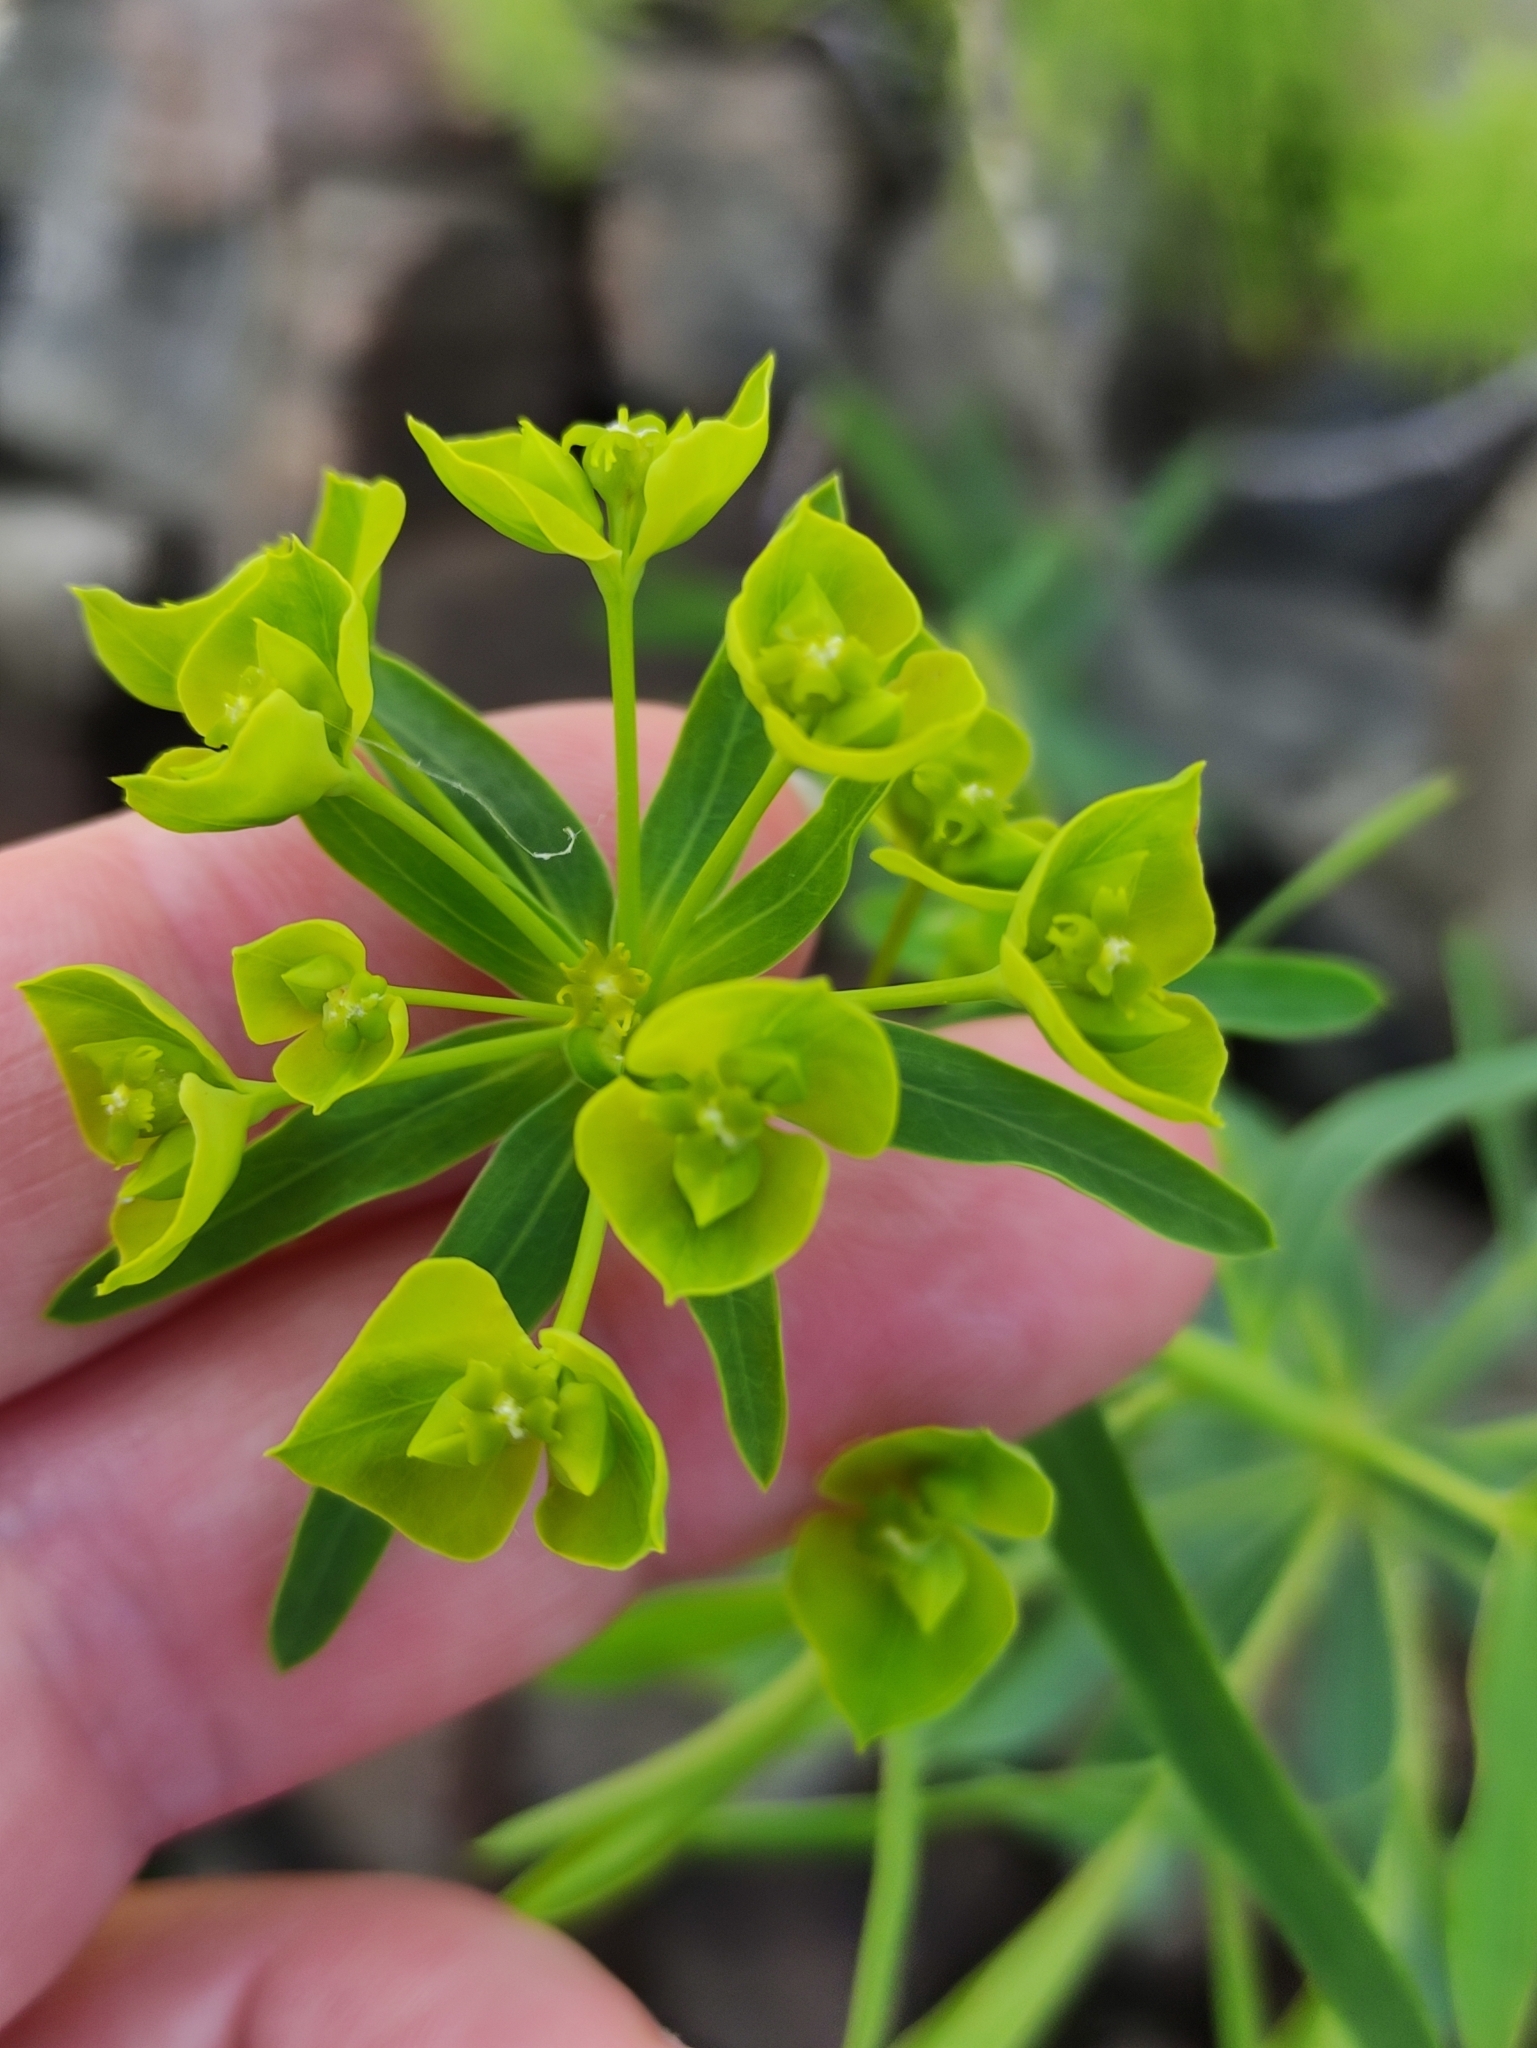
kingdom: Plantae
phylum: Tracheophyta
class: Magnoliopsida
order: Malpighiales
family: Euphorbiaceae
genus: Euphorbia
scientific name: Euphorbia virgata
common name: Leafy spurge
